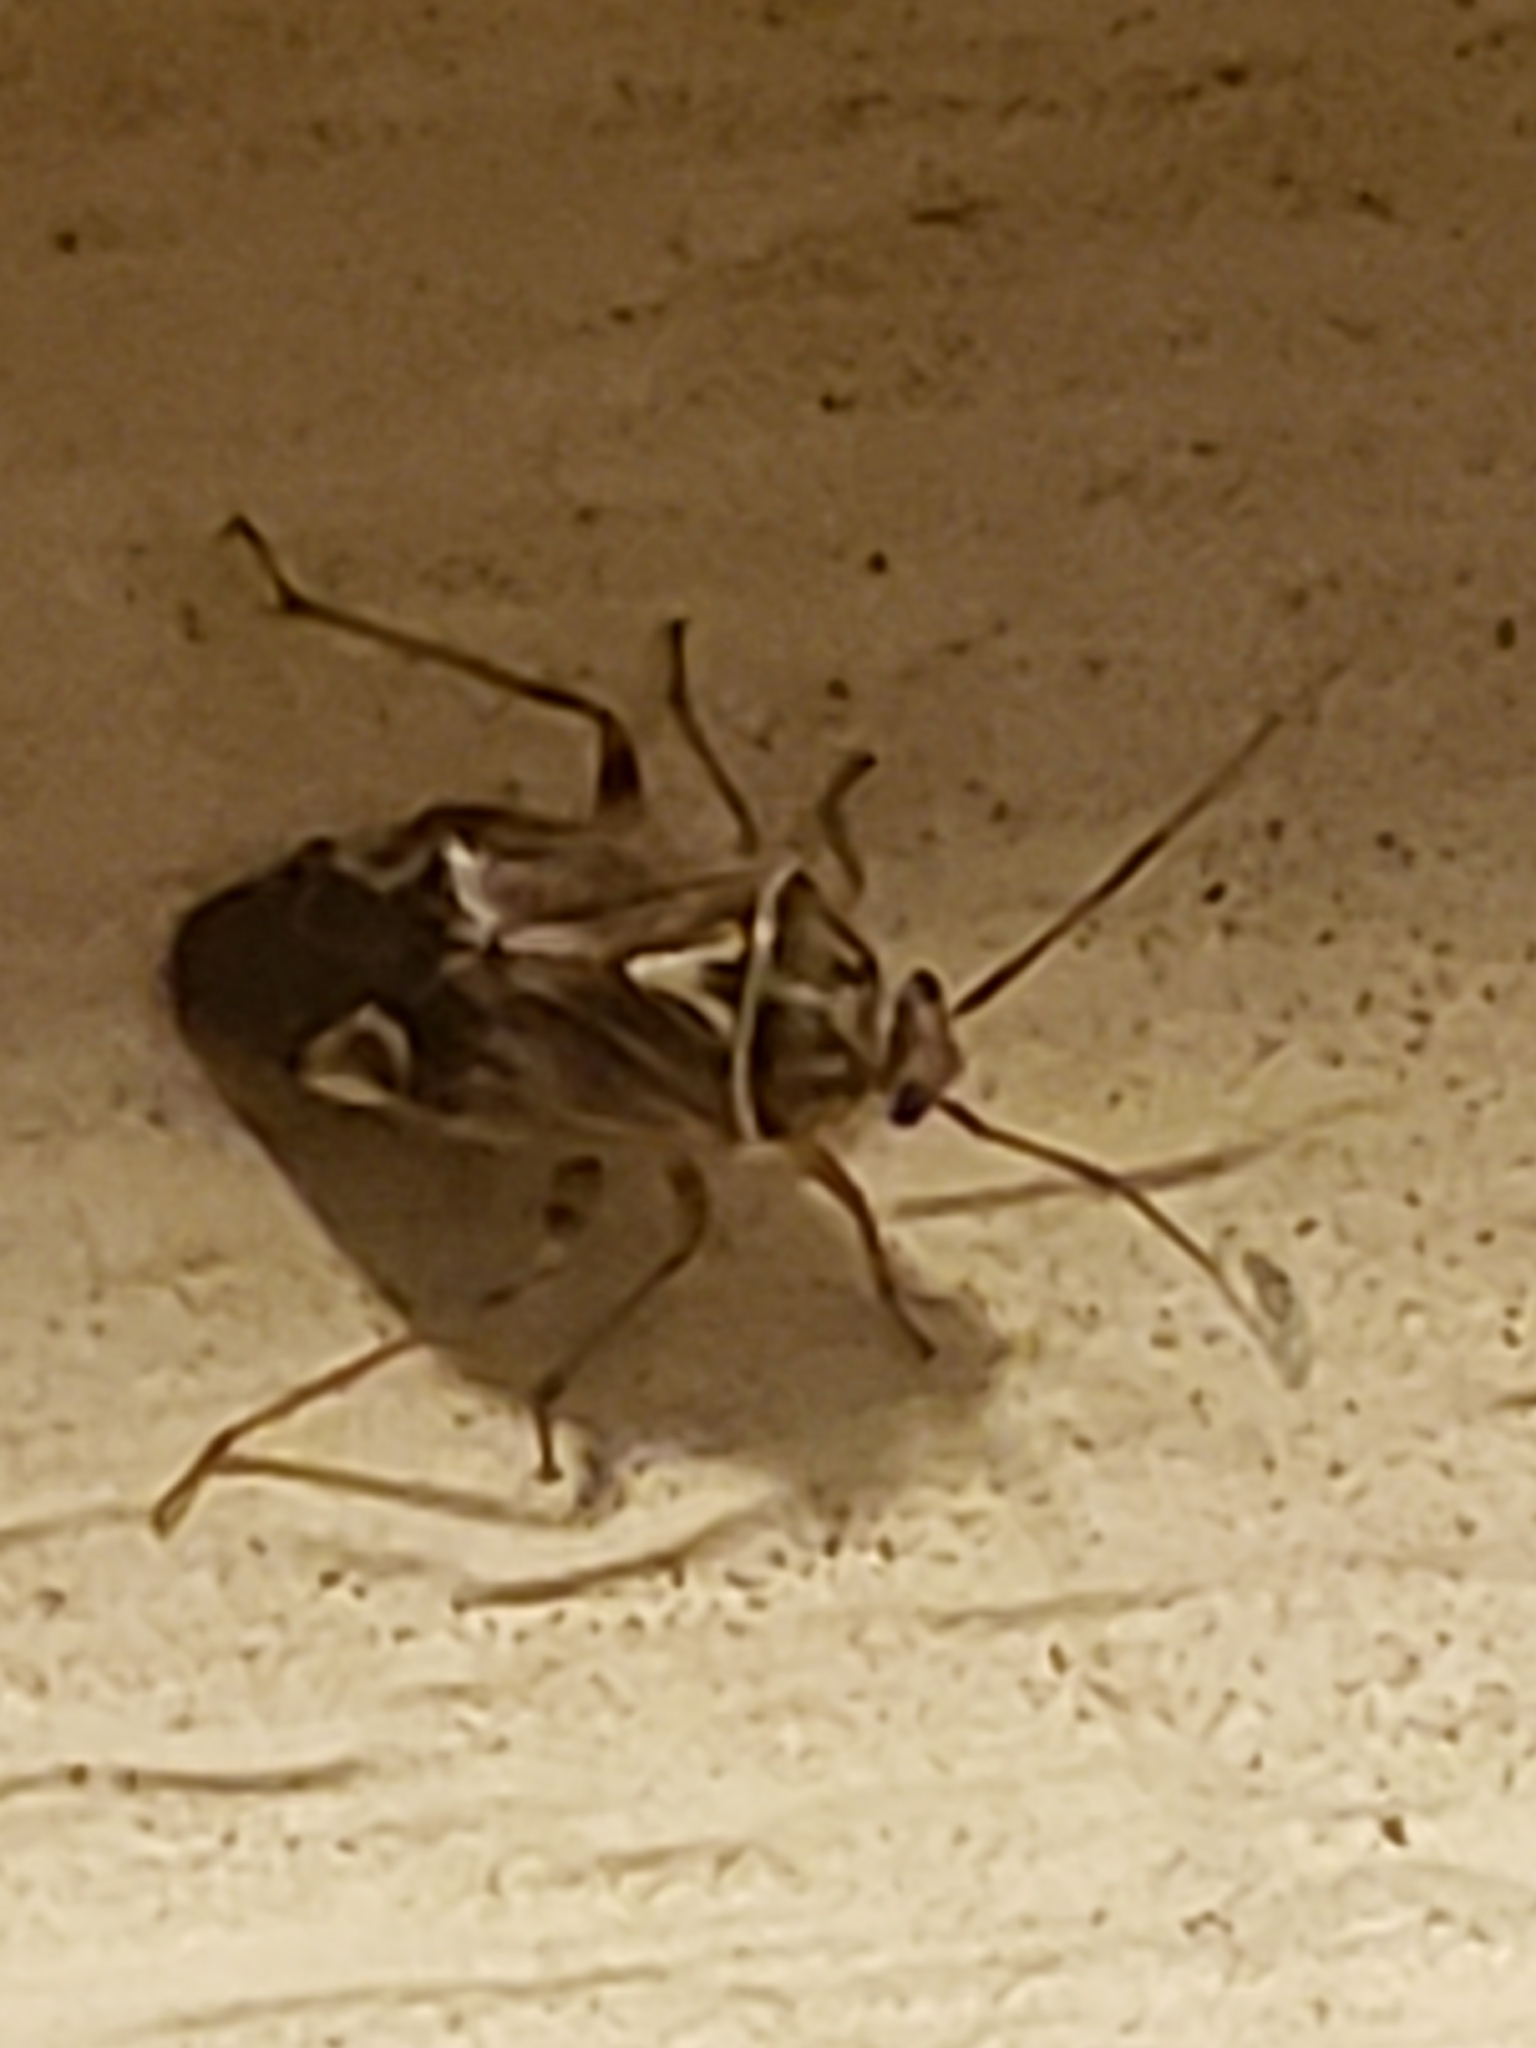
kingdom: Animalia
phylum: Arthropoda
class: Insecta
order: Hemiptera
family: Miridae
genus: Lygus
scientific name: Lygus lineolaris
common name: North american tarnished plant bug
